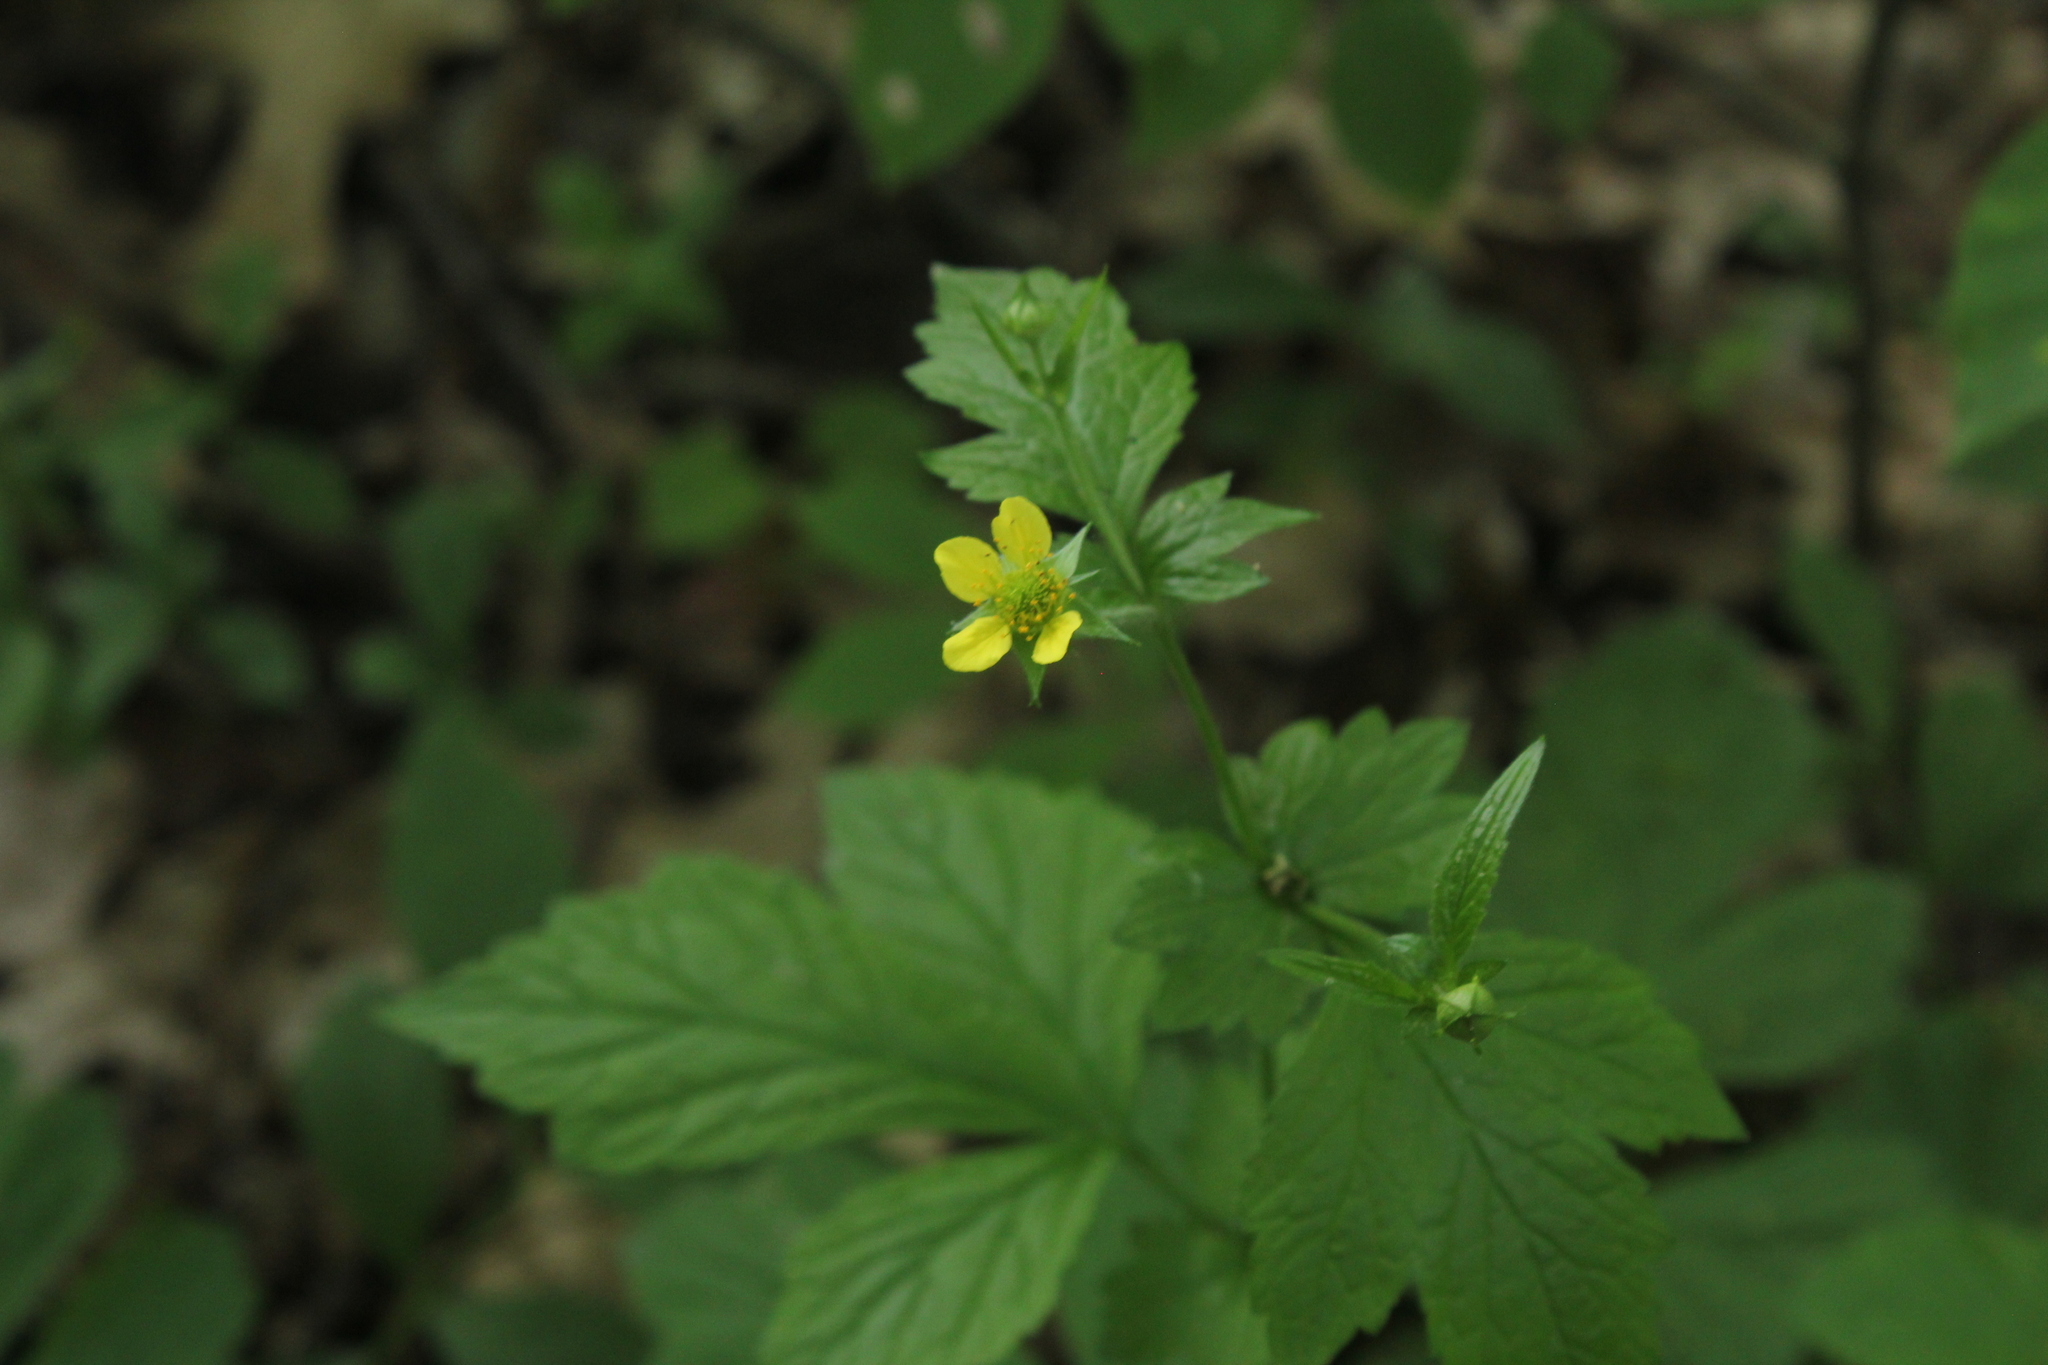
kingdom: Plantae
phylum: Tracheophyta
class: Magnoliopsida
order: Rosales
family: Rosaceae
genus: Geum
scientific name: Geum urbanum
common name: Wood avens
